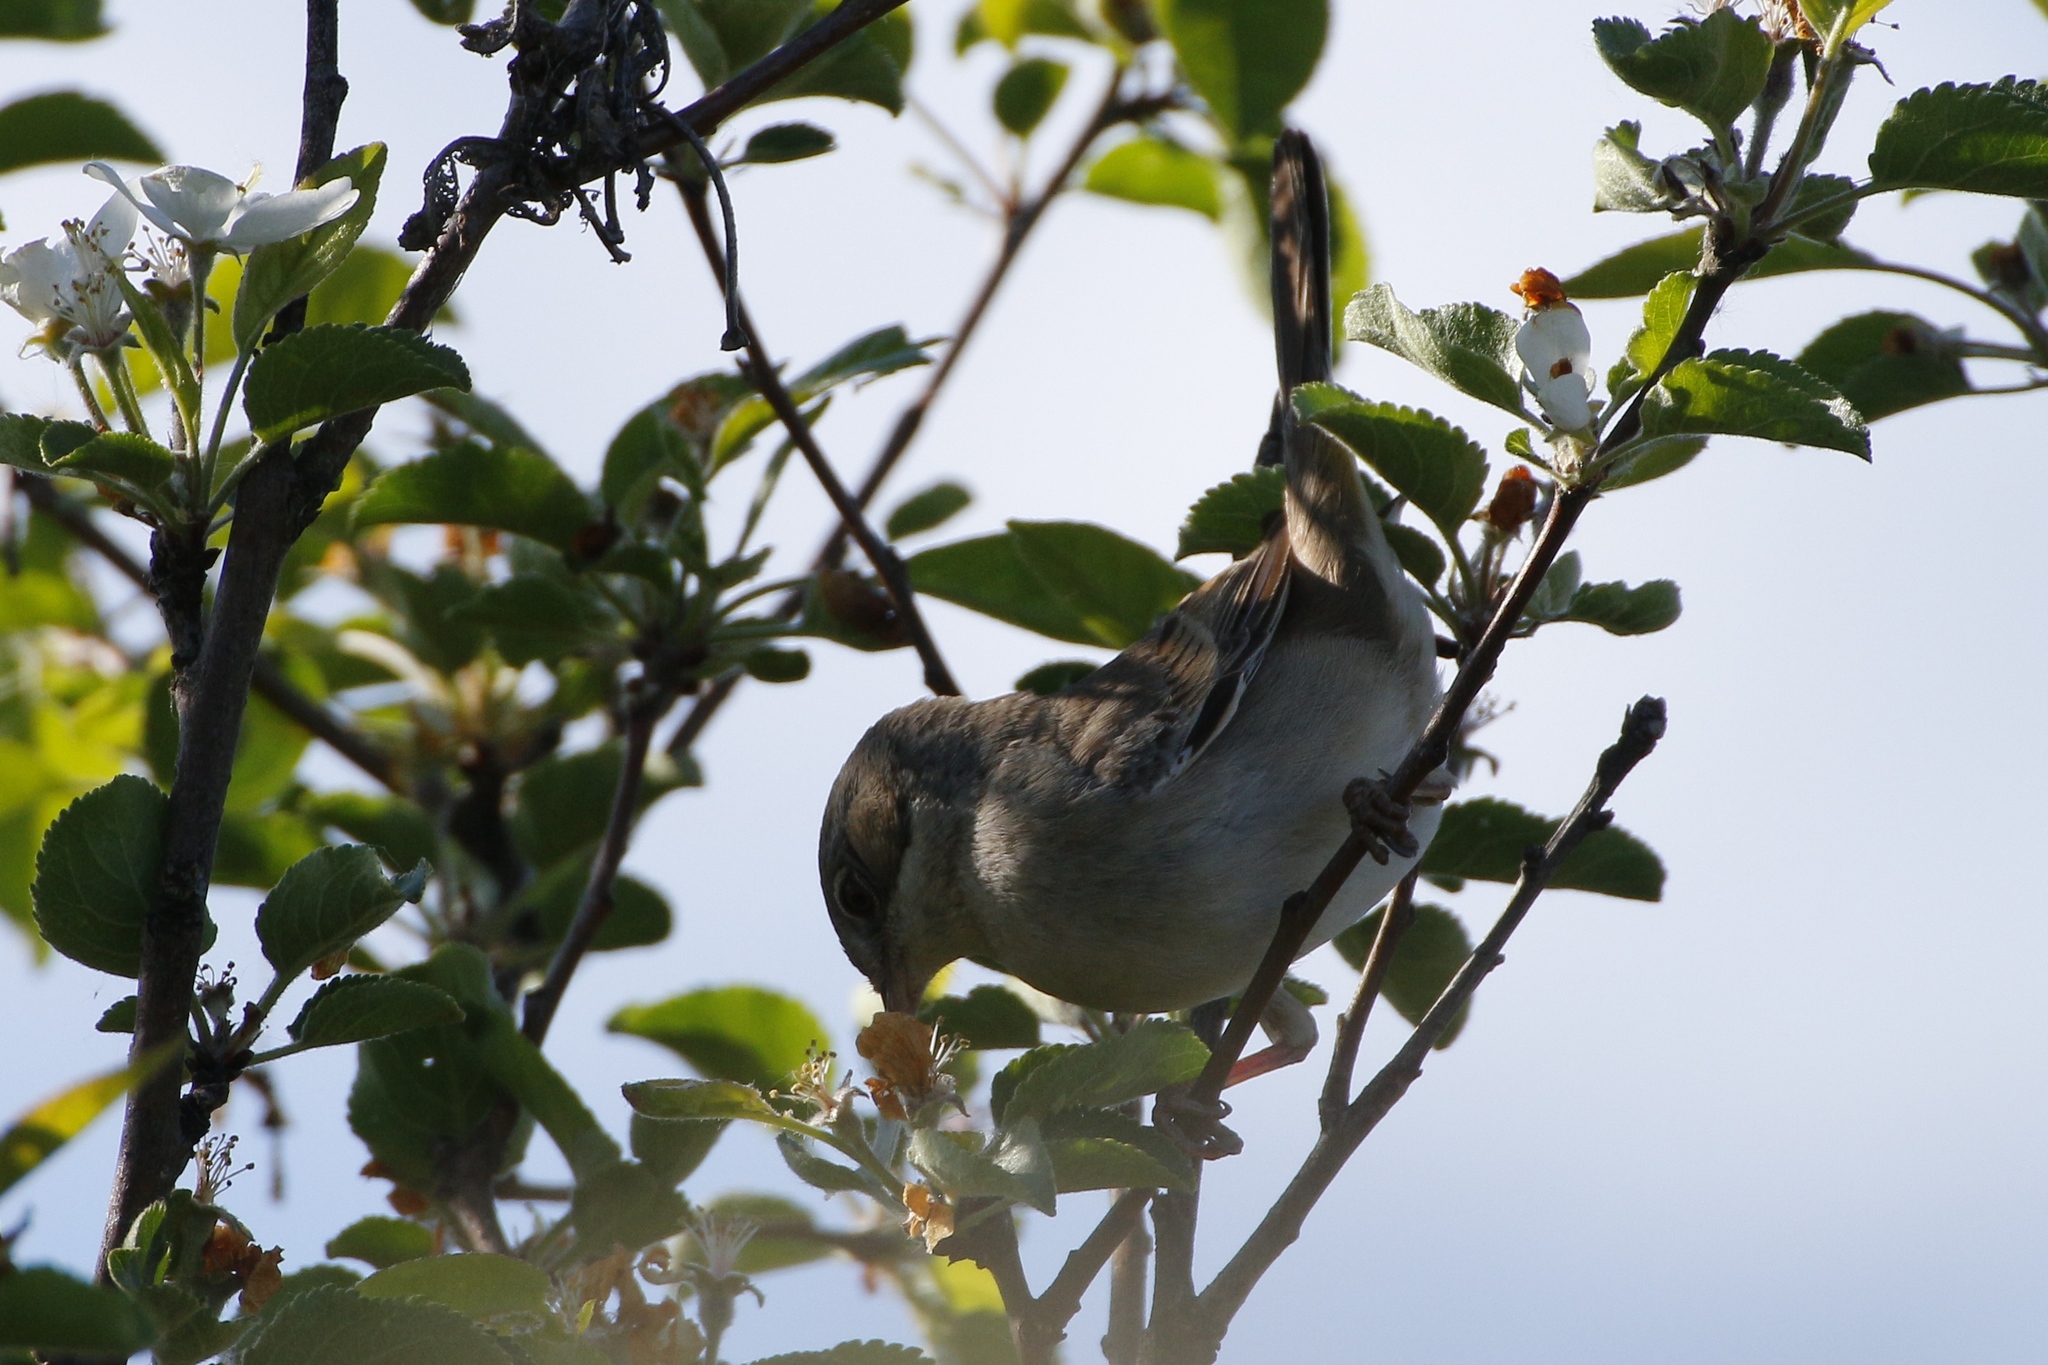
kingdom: Animalia
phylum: Chordata
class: Aves
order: Passeriformes
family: Sylviidae
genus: Sylvia
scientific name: Sylvia communis
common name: Common whitethroat
